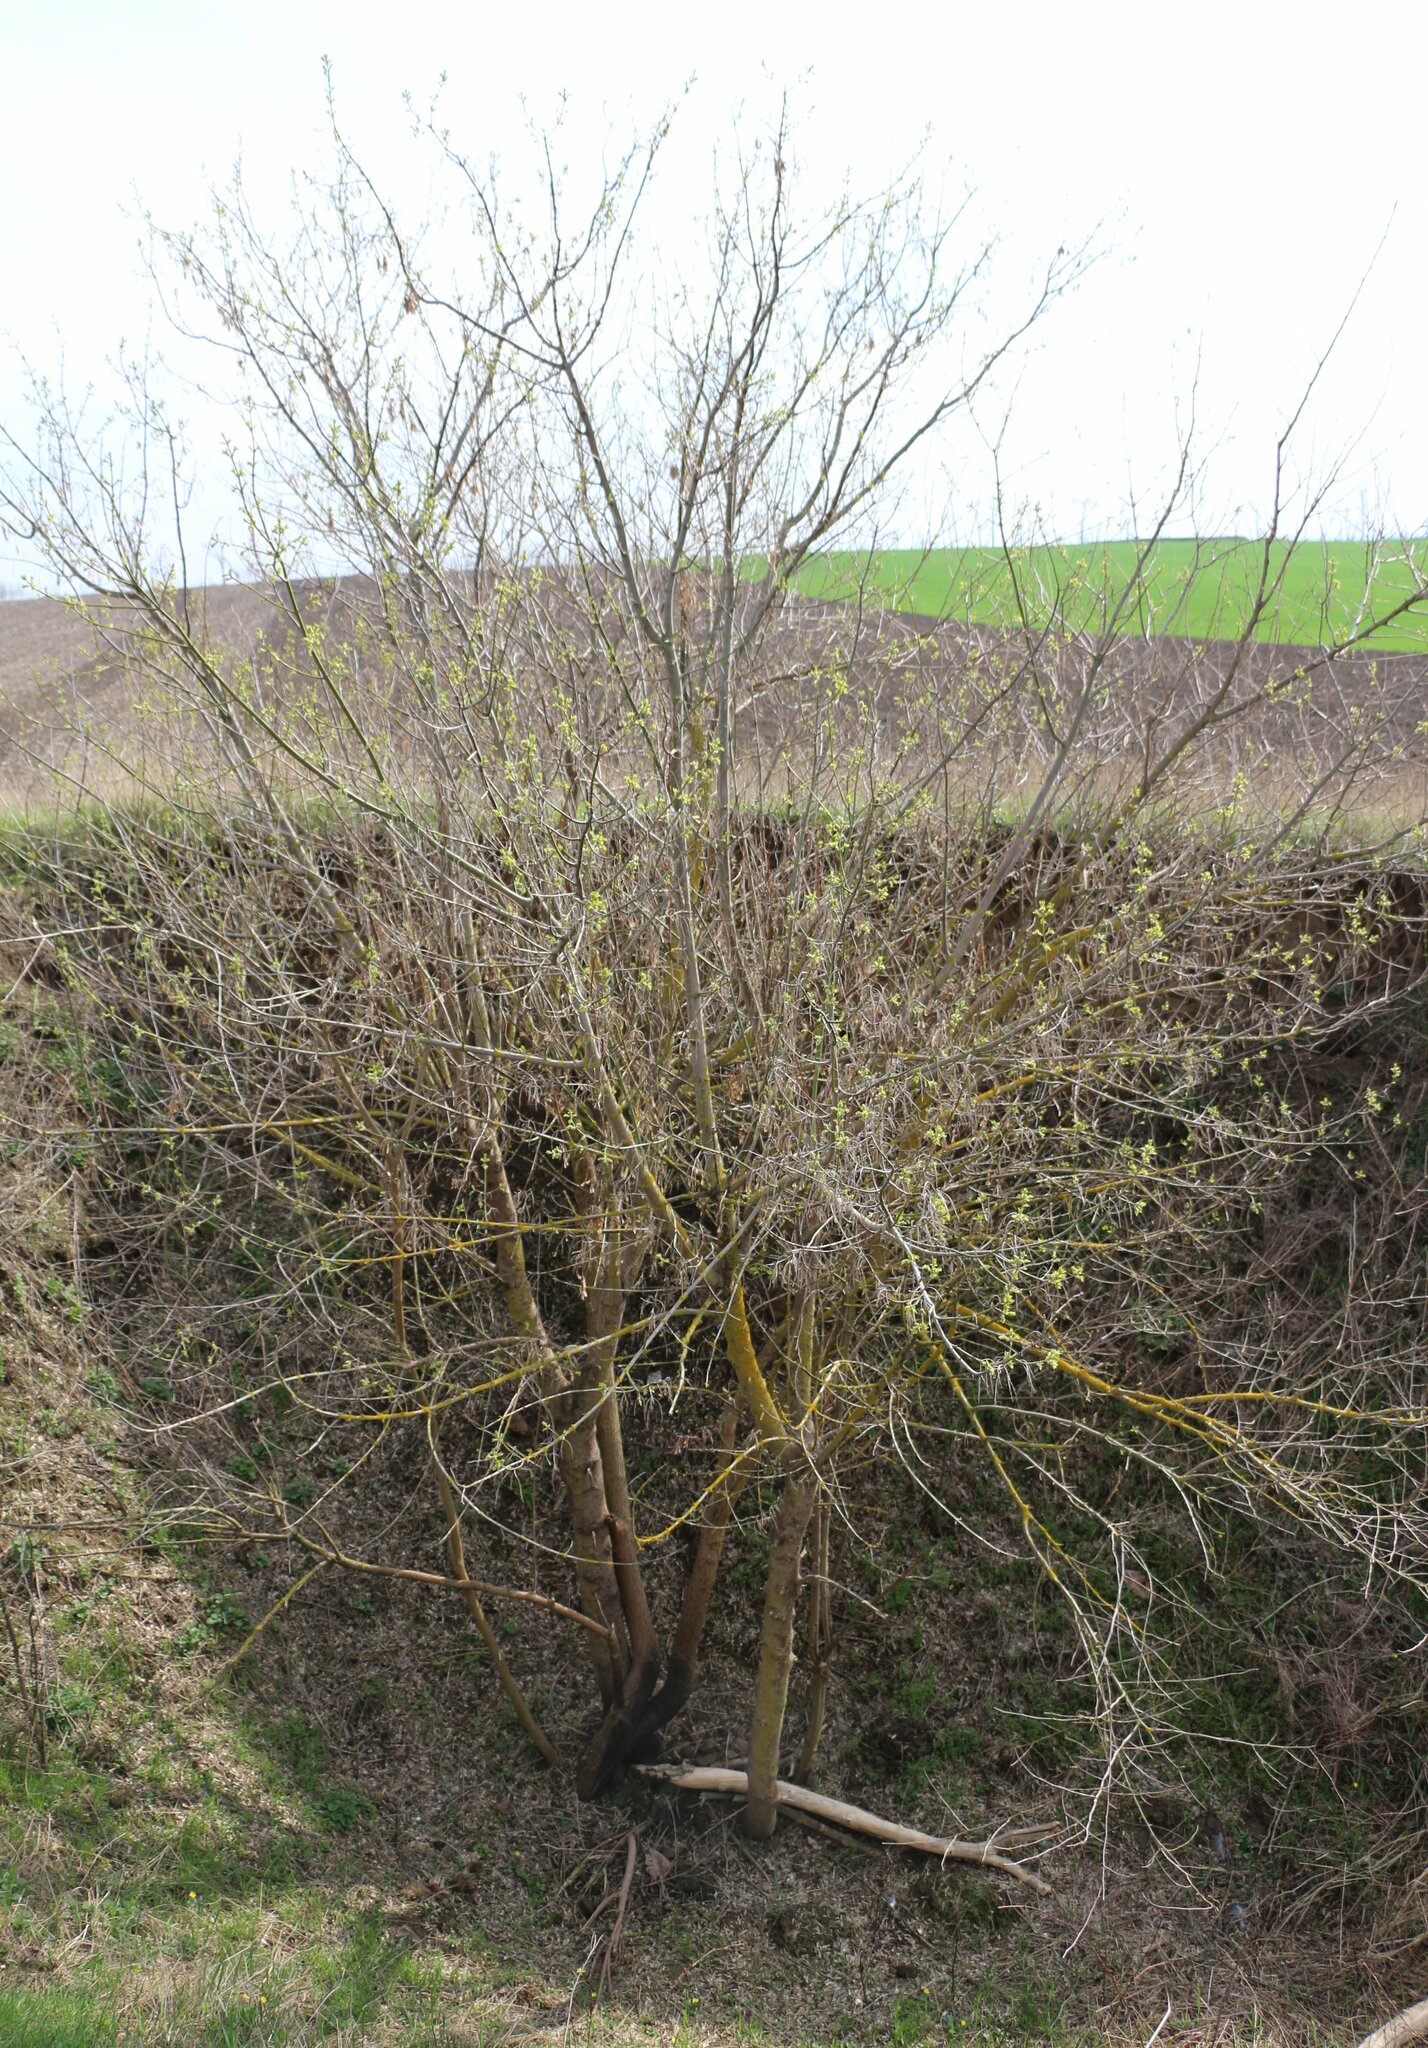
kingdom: Plantae
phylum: Tracheophyta
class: Magnoliopsida
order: Sapindales
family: Sapindaceae
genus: Acer
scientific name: Acer negundo
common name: Ashleaf maple
